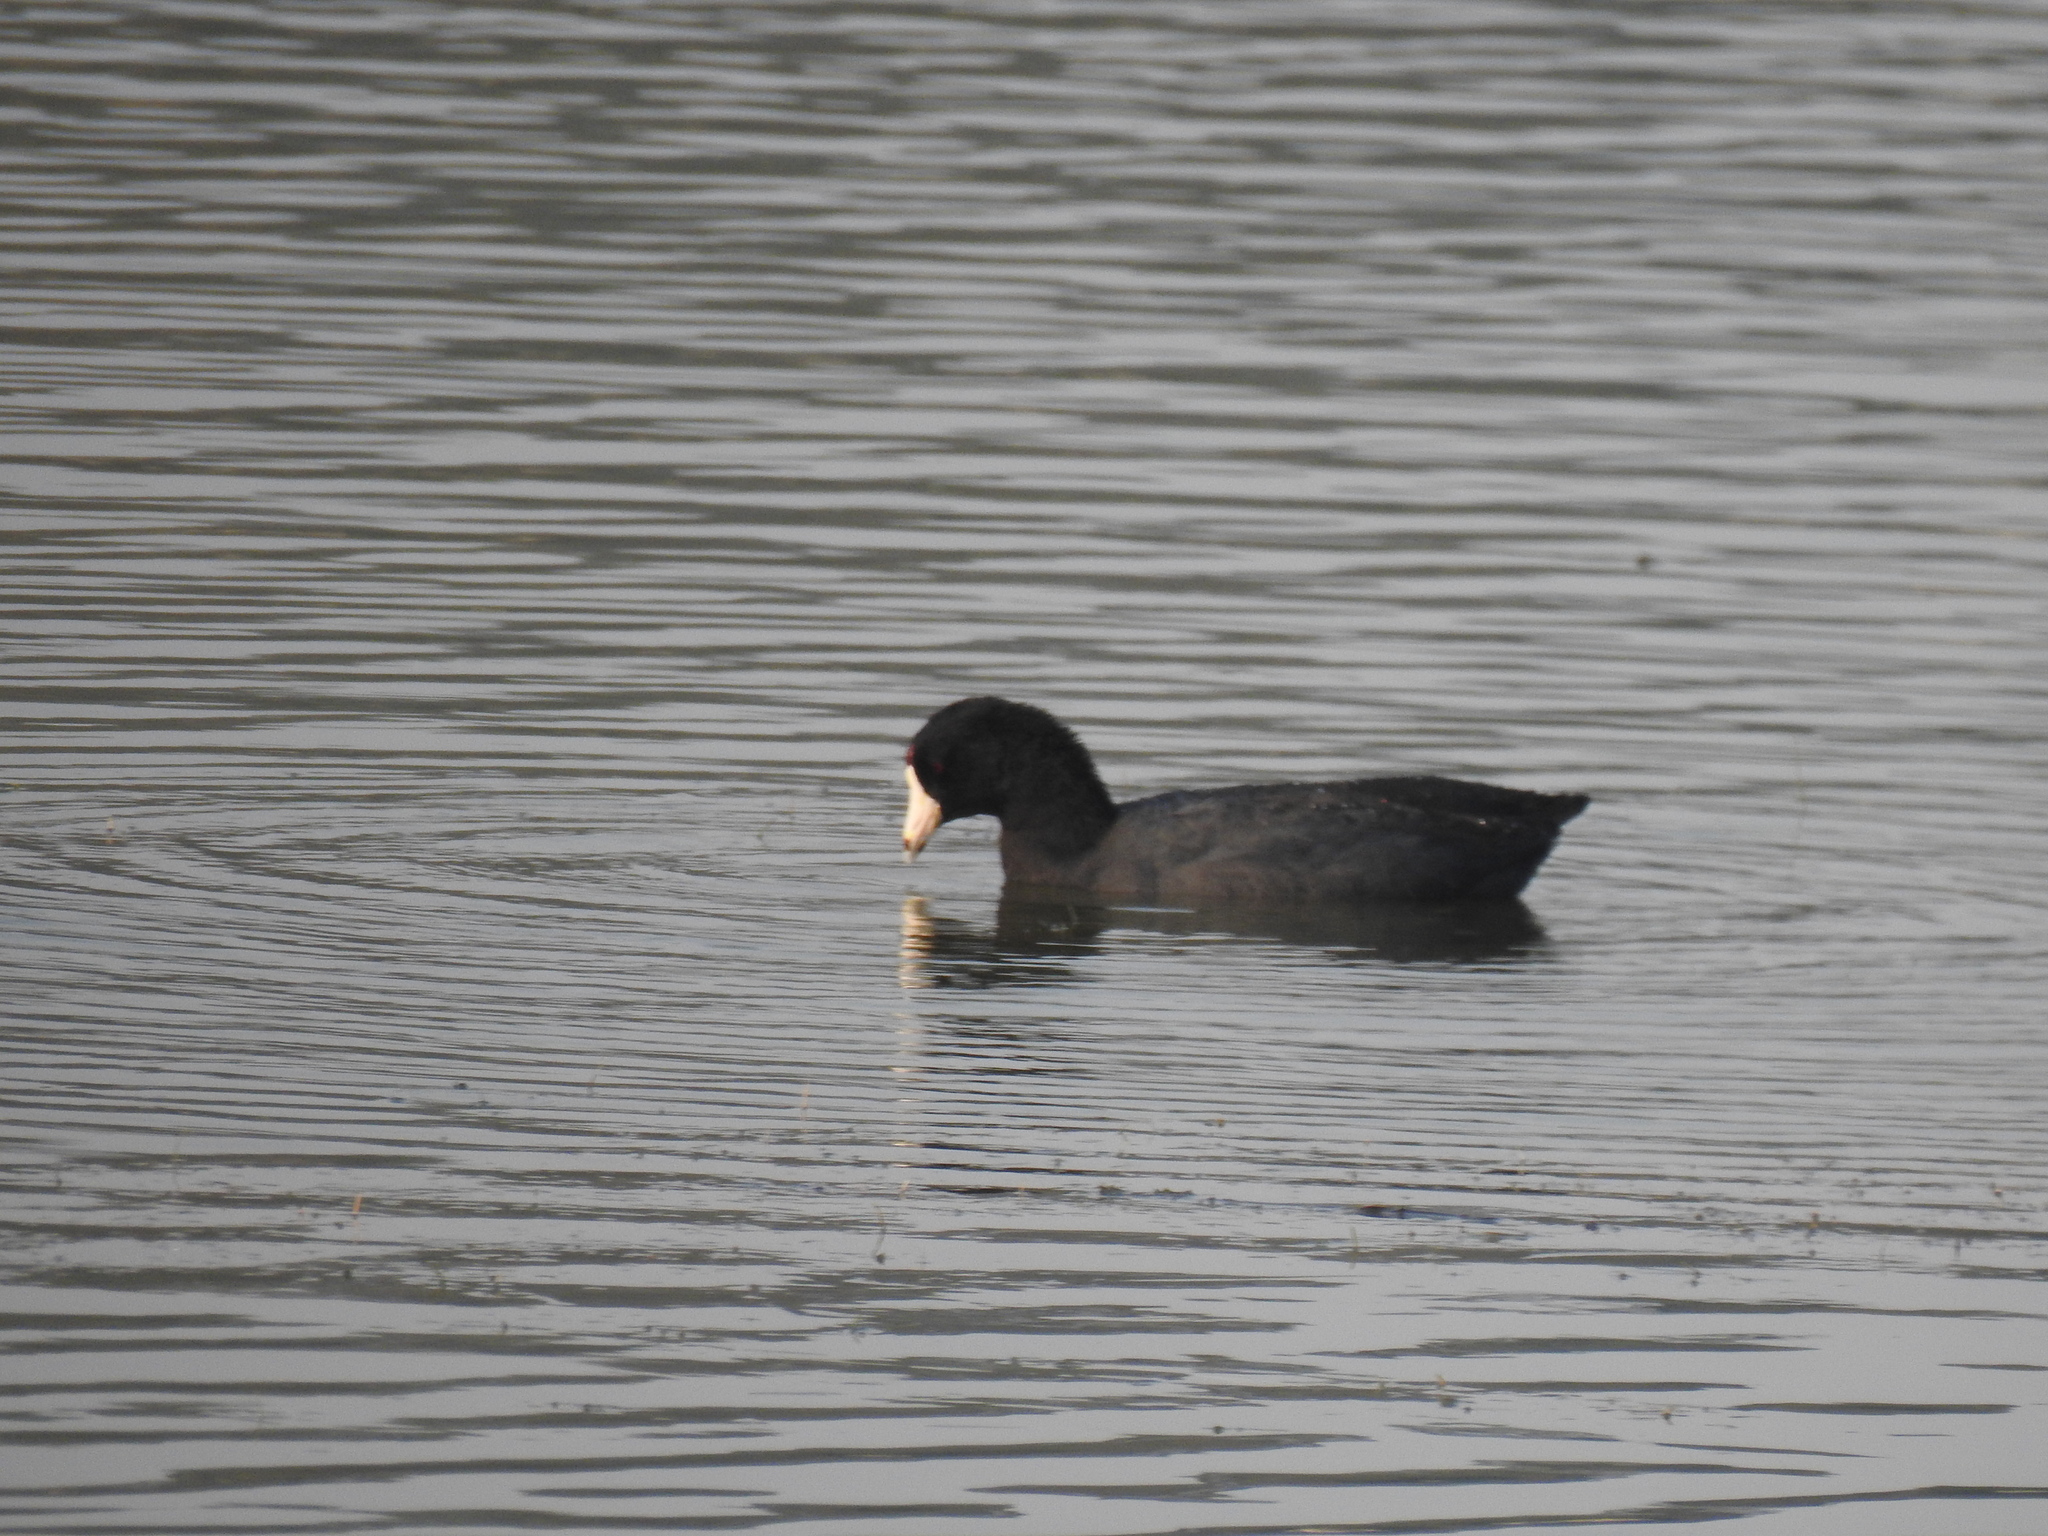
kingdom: Animalia
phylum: Chordata
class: Aves
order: Gruiformes
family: Rallidae
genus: Fulica
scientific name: Fulica americana
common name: American coot
